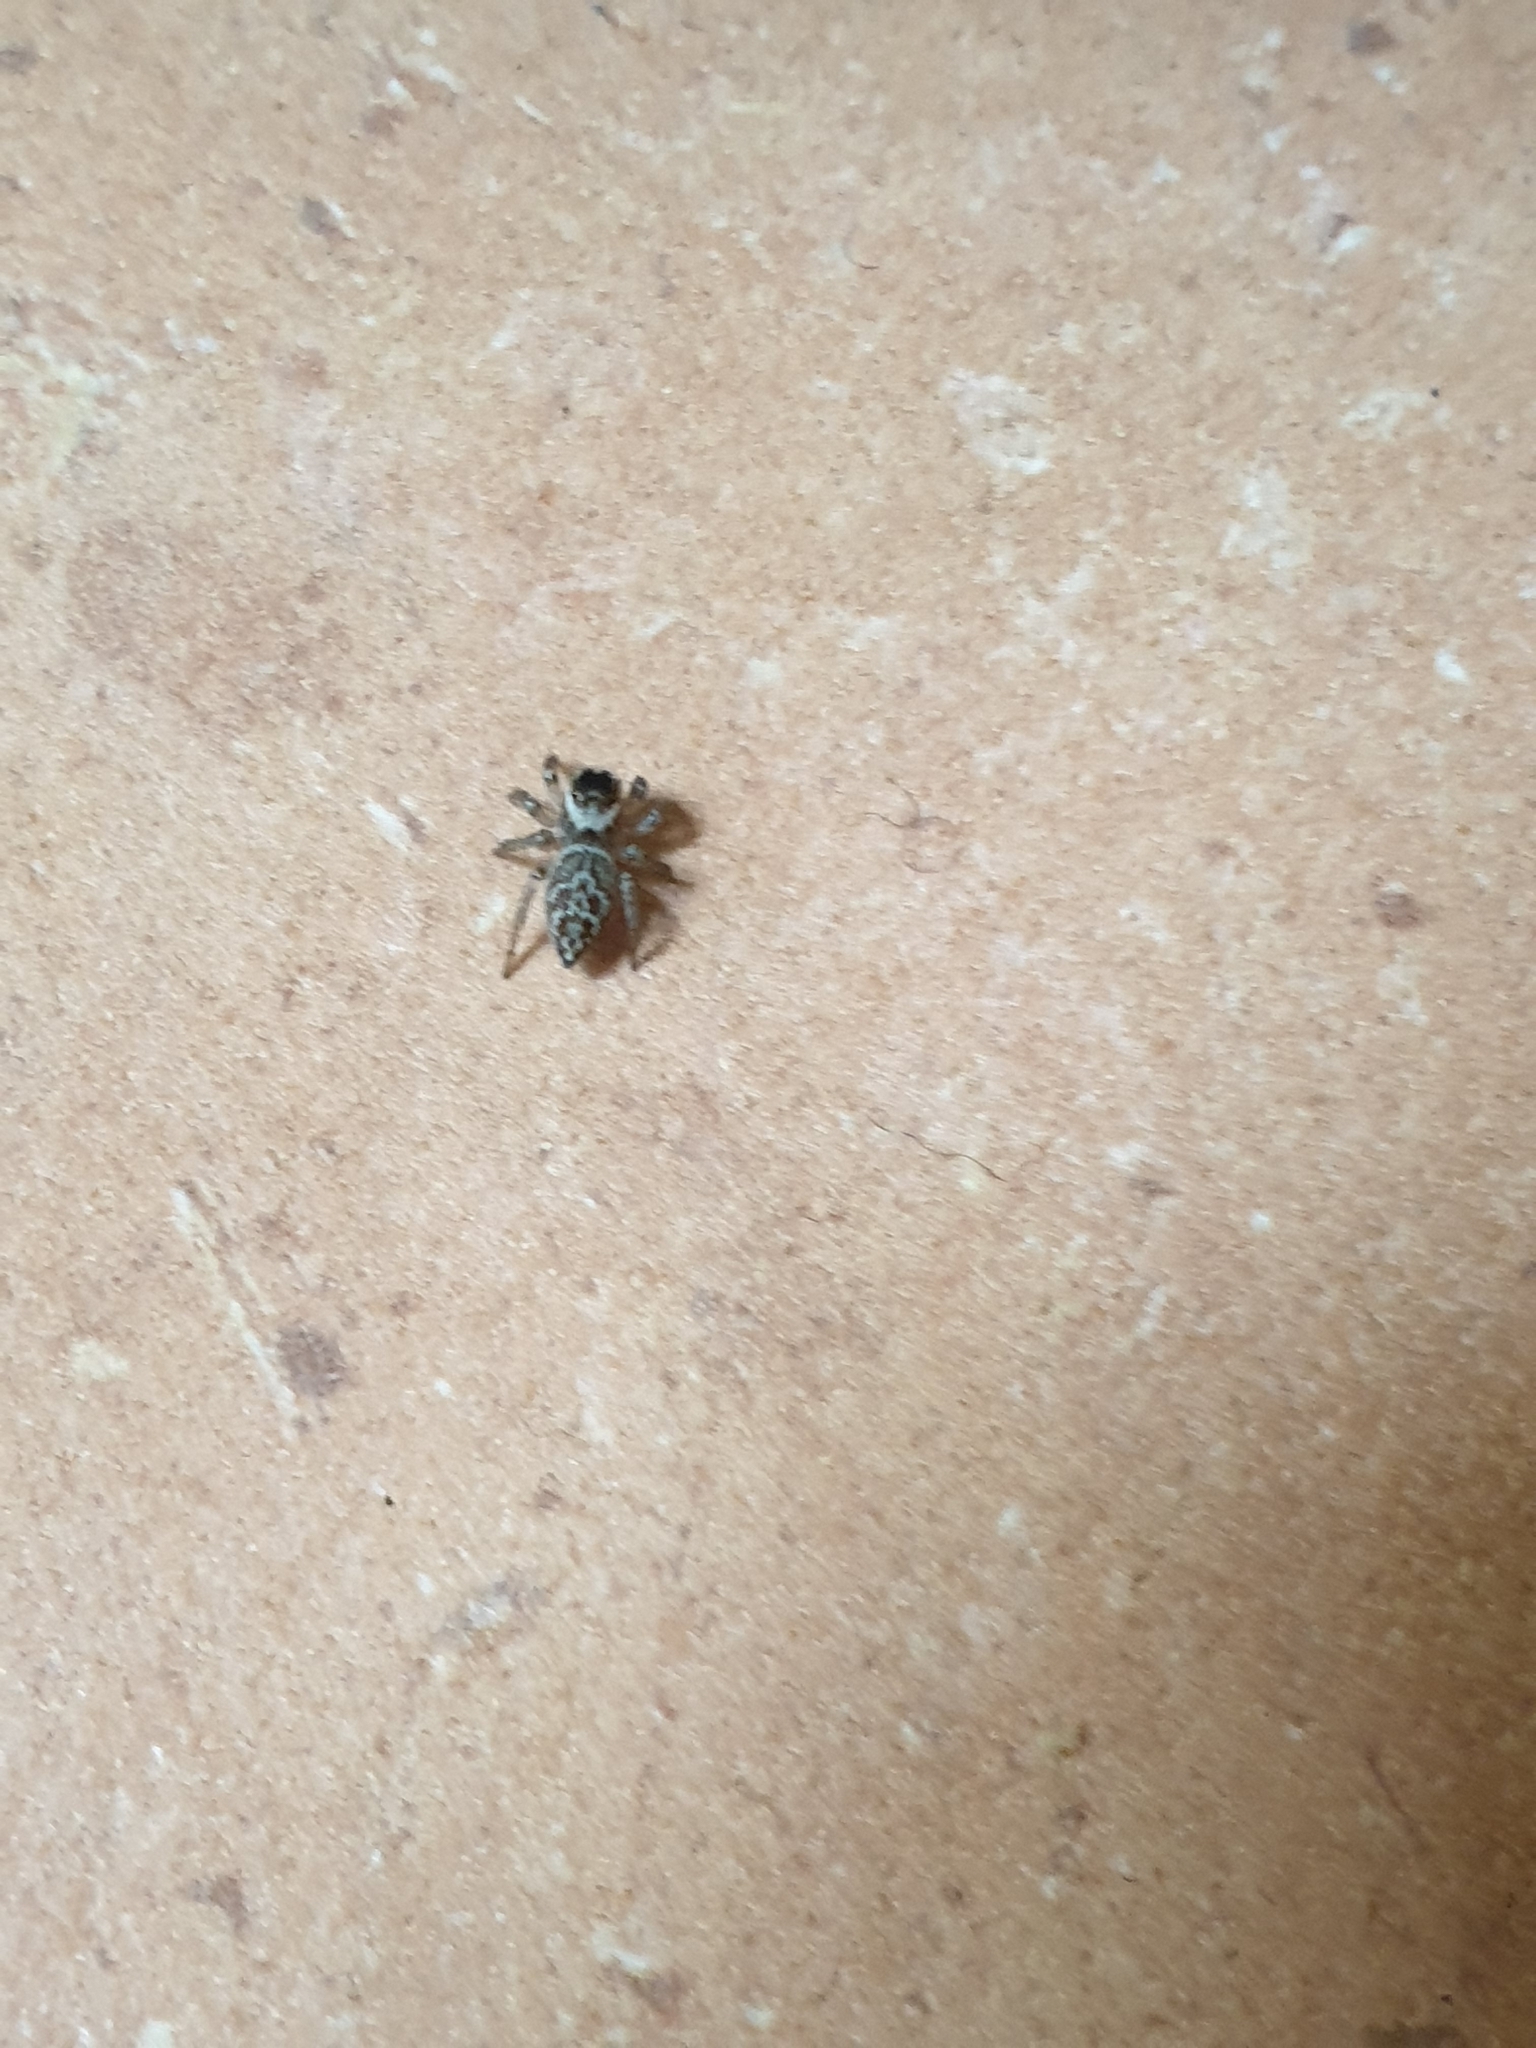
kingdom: Animalia
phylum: Arthropoda
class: Arachnida
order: Araneae
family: Salticidae
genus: Maratus
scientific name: Maratus griseus
